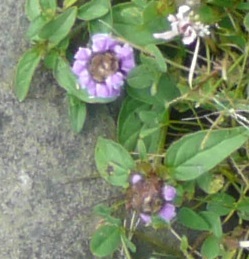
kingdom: Plantae
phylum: Tracheophyta
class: Magnoliopsida
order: Lamiales
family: Lamiaceae
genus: Prunella
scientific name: Prunella vulgaris
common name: Heal-all
